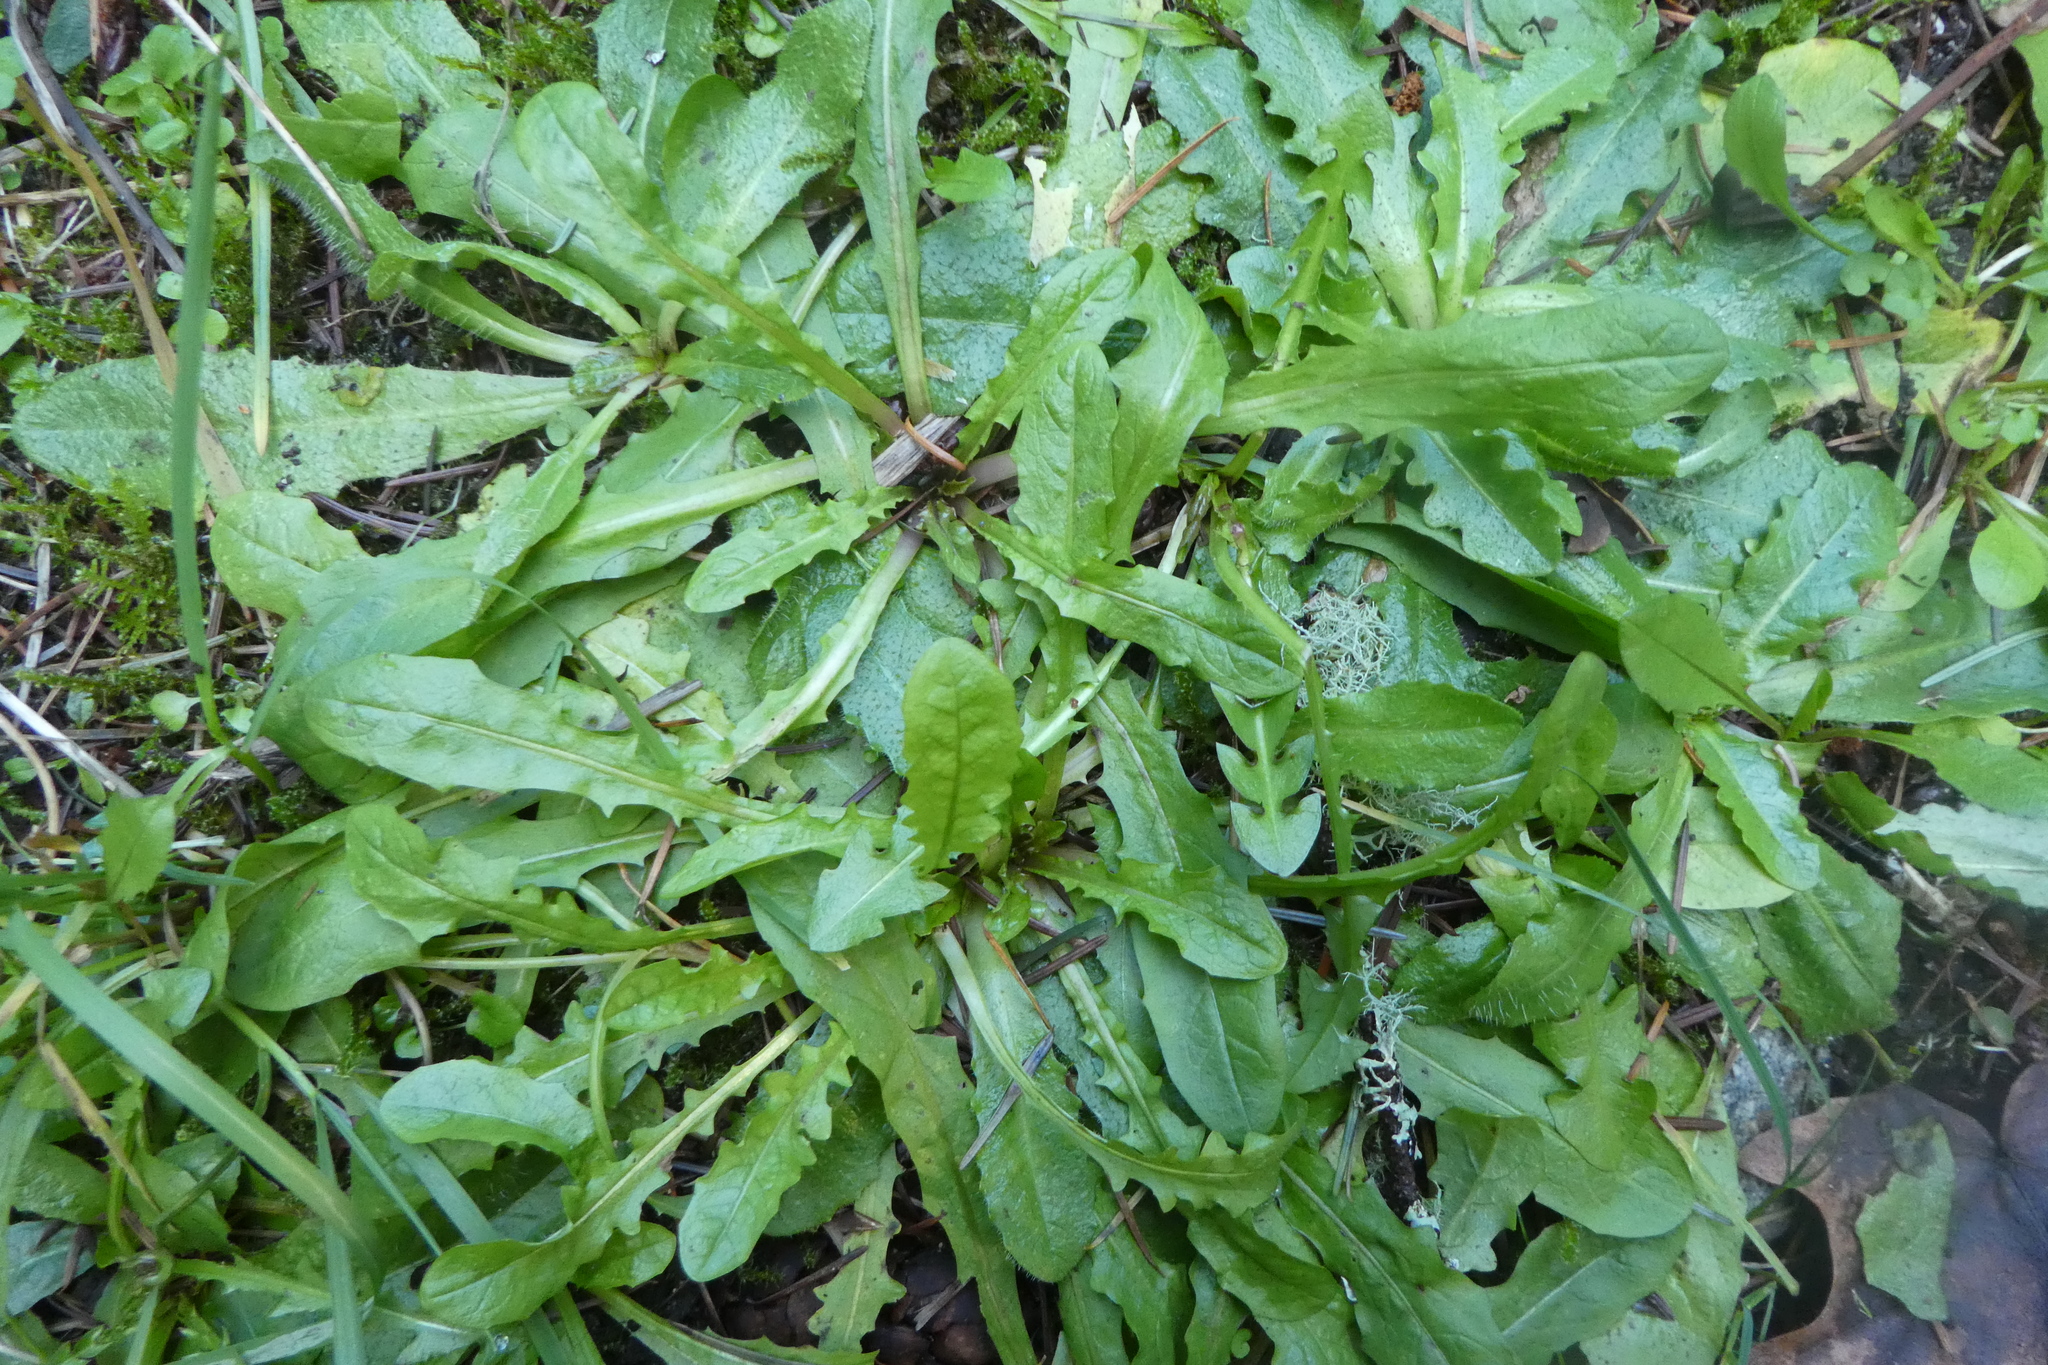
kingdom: Plantae
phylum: Tracheophyta
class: Magnoliopsida
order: Asterales
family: Asteraceae
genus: Taraxacum
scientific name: Taraxacum
